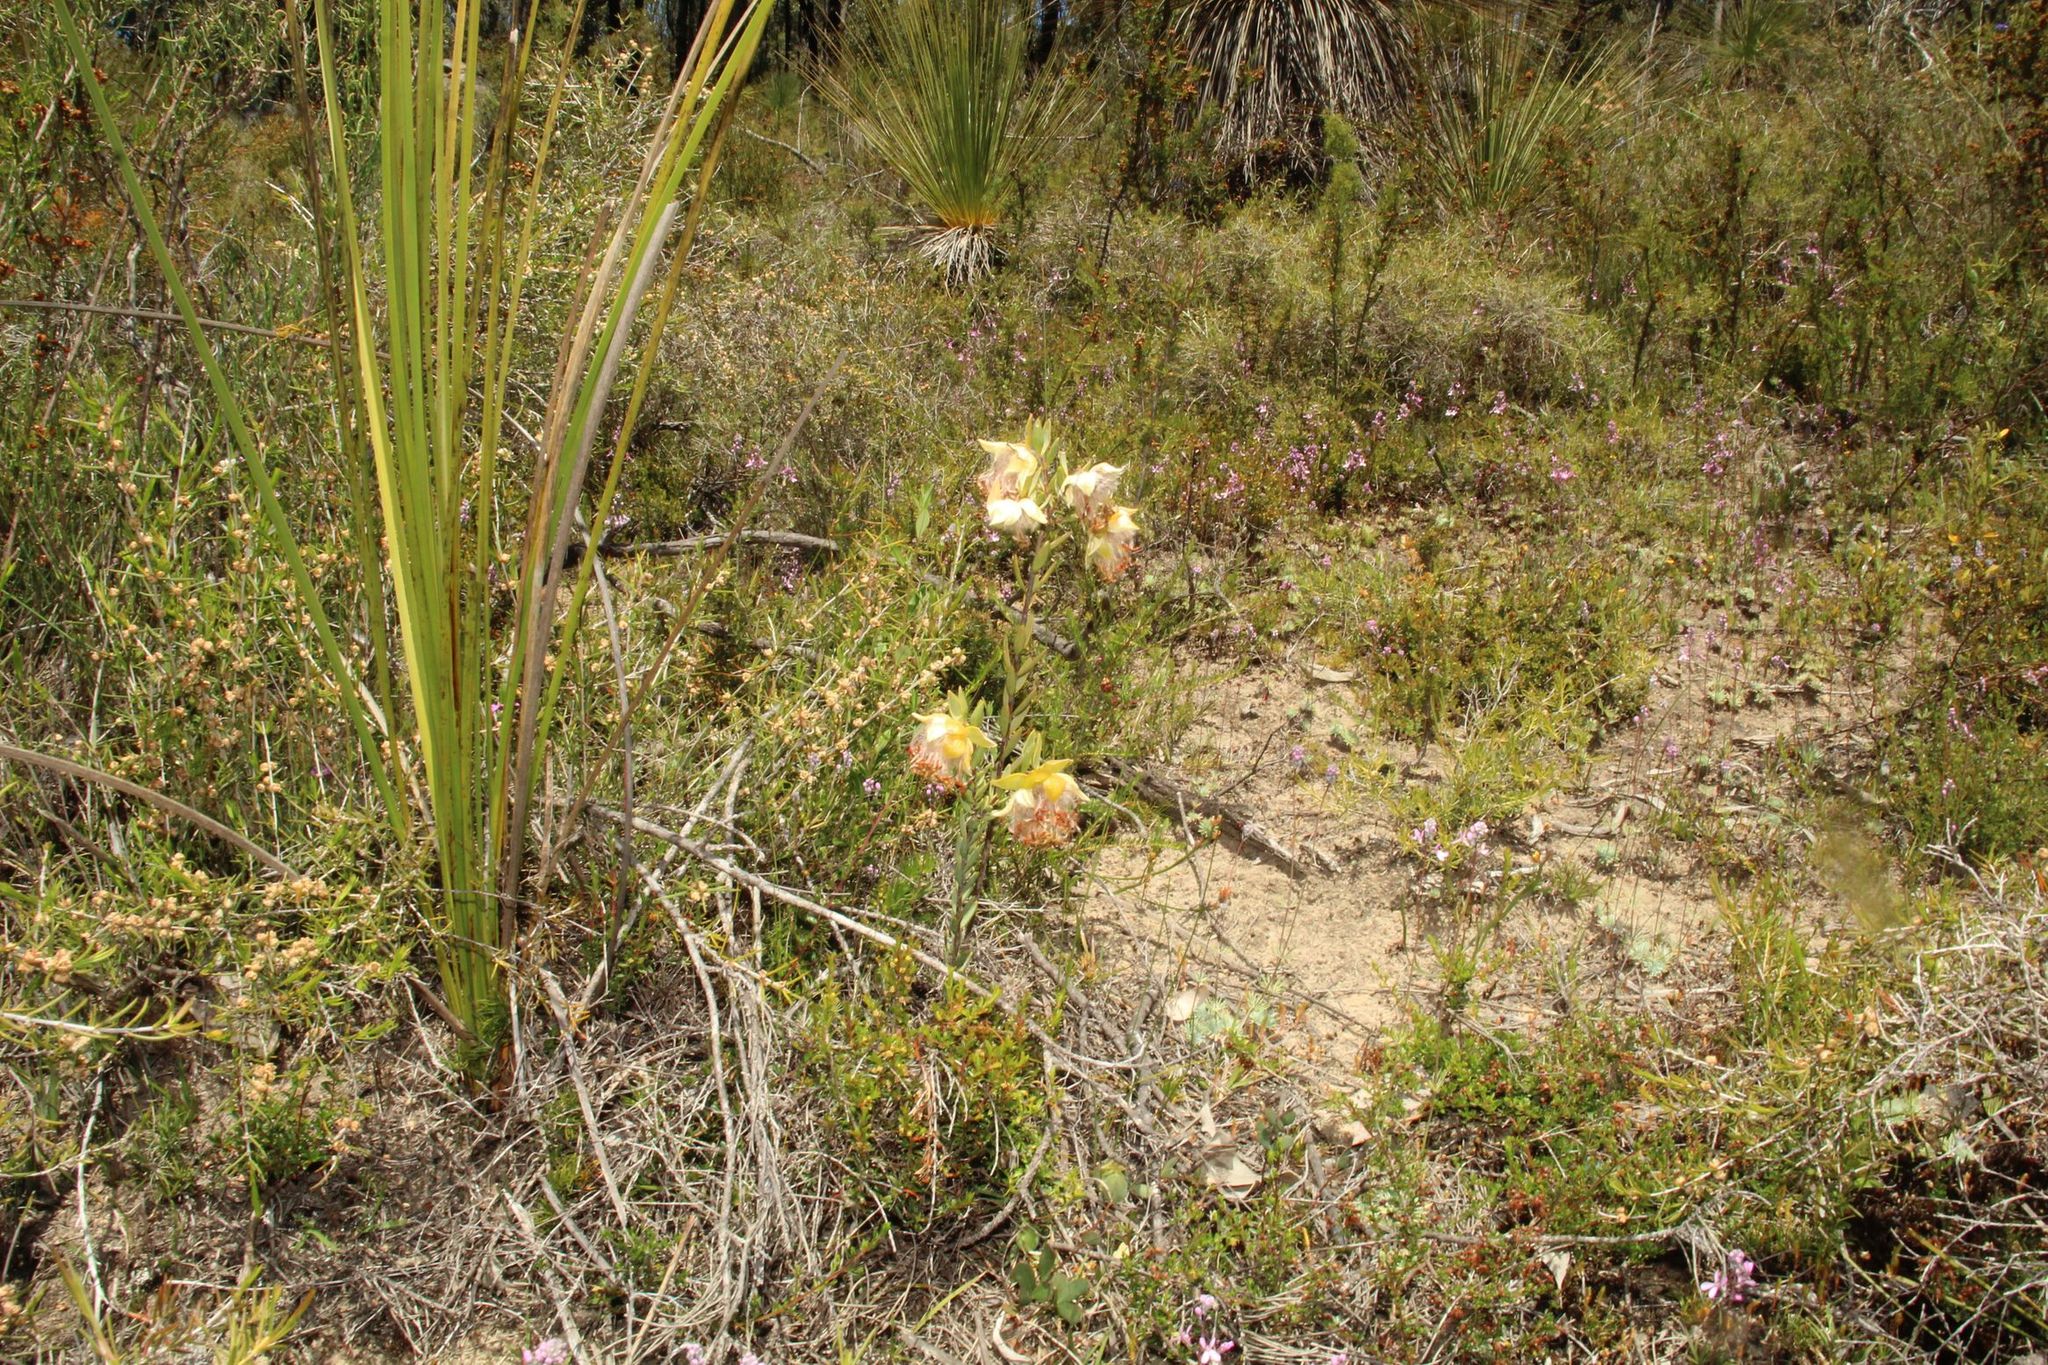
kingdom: Plantae
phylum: Tracheophyta
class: Magnoliopsida
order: Malvales
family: Thymelaeaceae
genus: Pimelea
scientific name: Pimelea suaveolens
